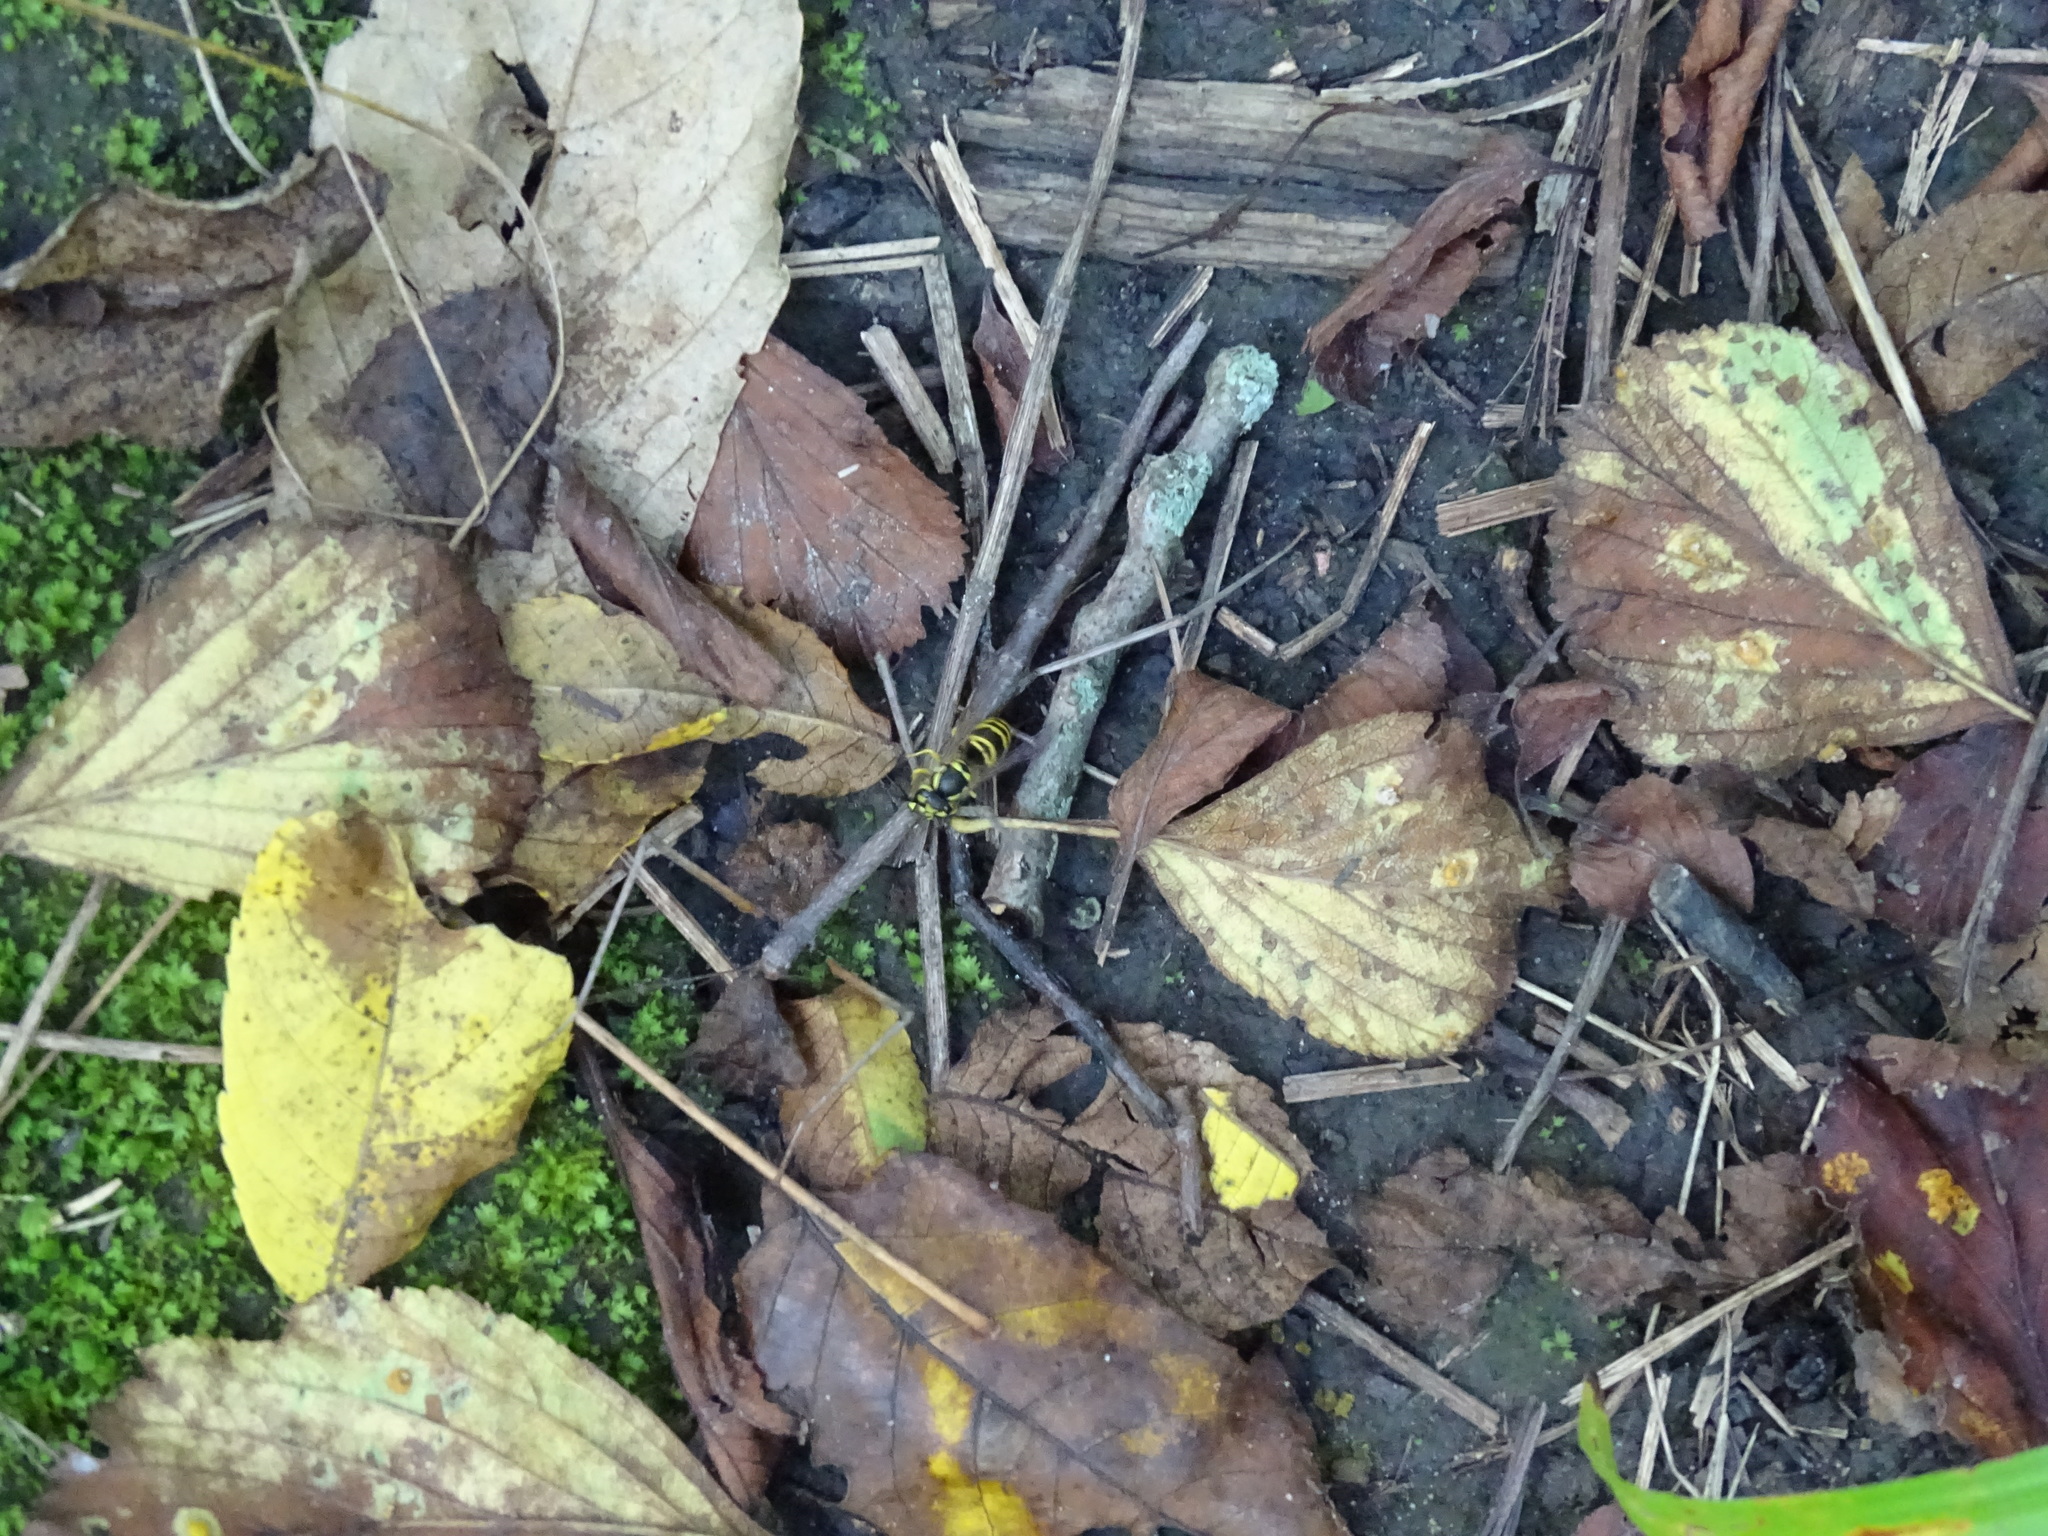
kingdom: Animalia
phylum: Arthropoda
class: Insecta
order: Hymenoptera
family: Vespidae
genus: Vespula
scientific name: Vespula maculifrons
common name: Eastern yellowjacket
